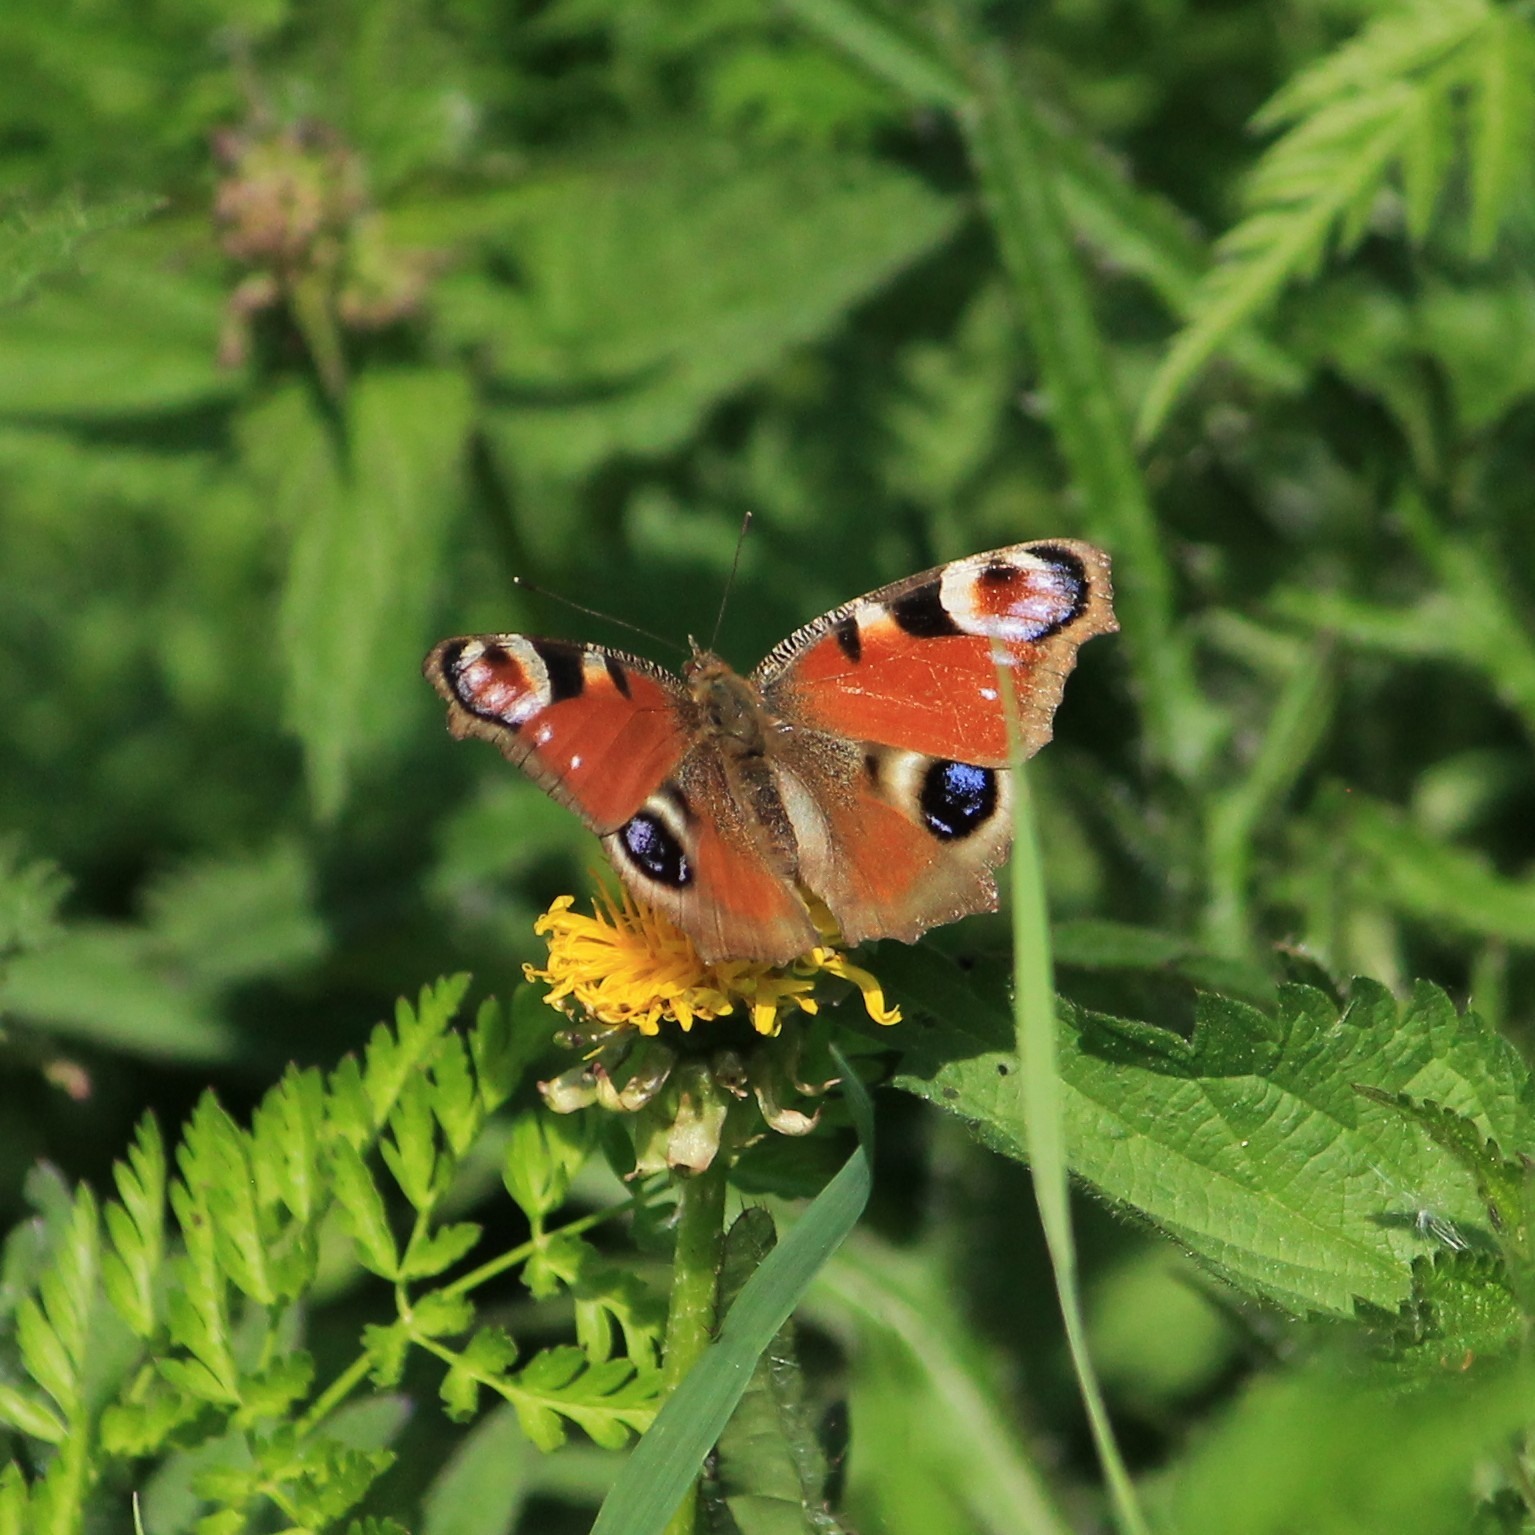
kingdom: Animalia
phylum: Arthropoda
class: Insecta
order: Lepidoptera
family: Nymphalidae
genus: Aglais
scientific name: Aglais io
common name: Peacock
